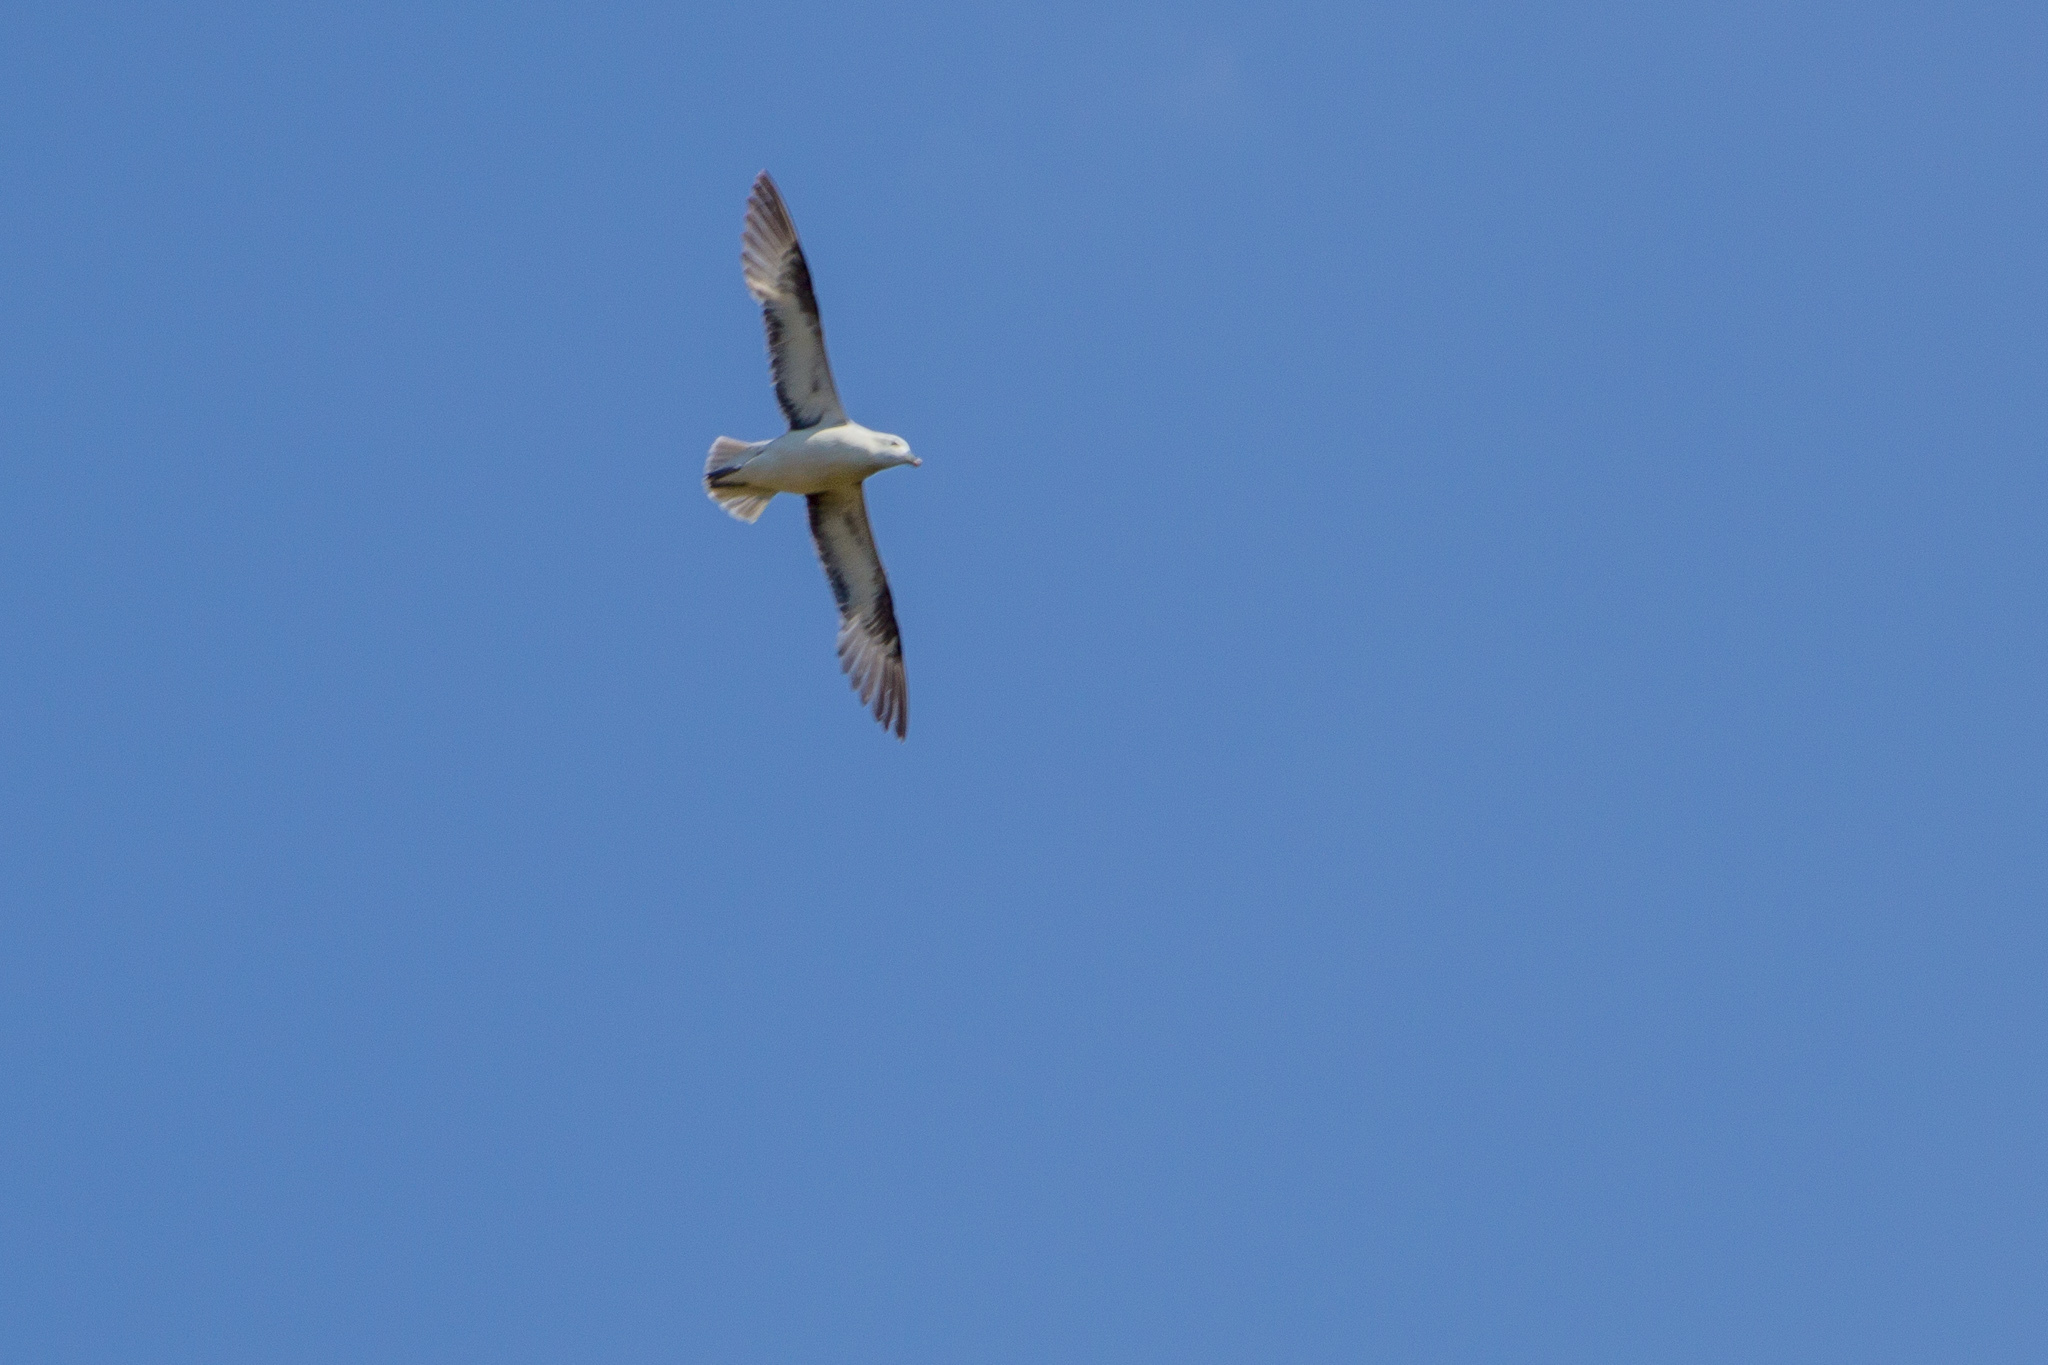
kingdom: Animalia
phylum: Chordata
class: Aves
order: Procellariiformes
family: Procellariidae
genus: Fulmarus
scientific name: Fulmarus glacialis
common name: Northern fulmar
